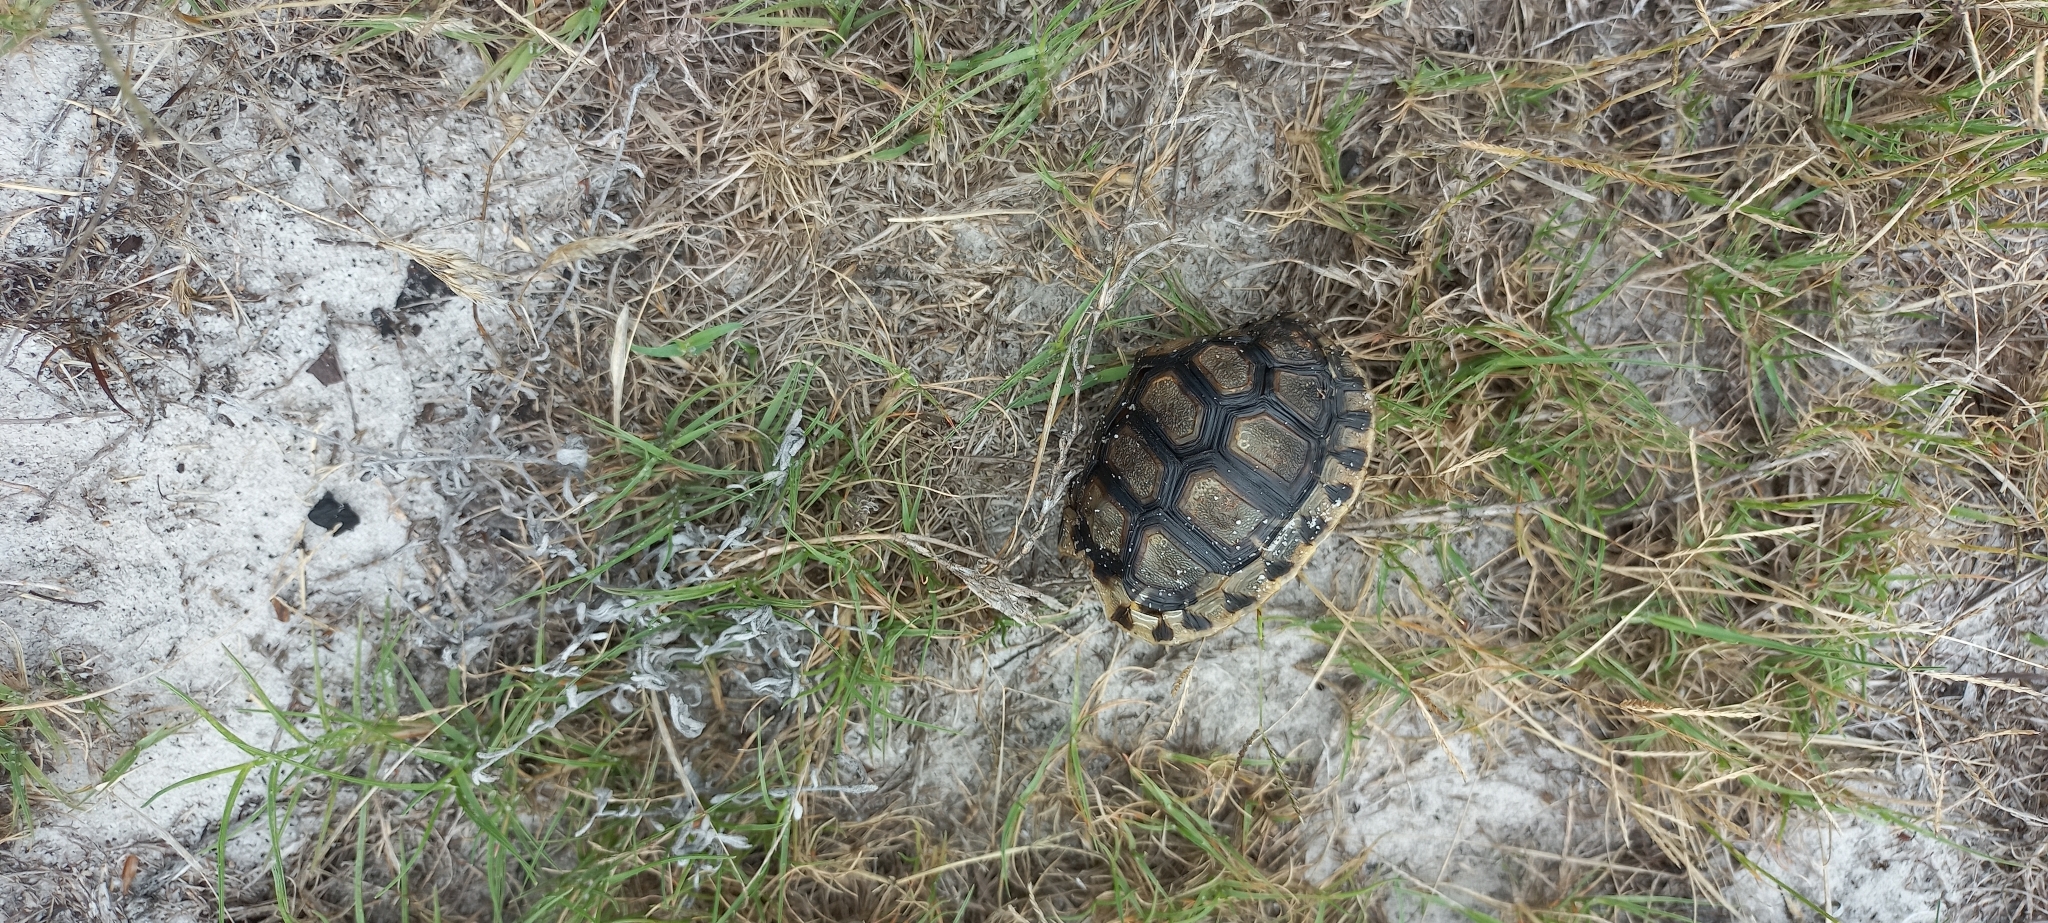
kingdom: Animalia
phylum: Chordata
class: Testudines
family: Testudinidae
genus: Chersina
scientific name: Chersina angulata
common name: South african bowsprit tortoise
